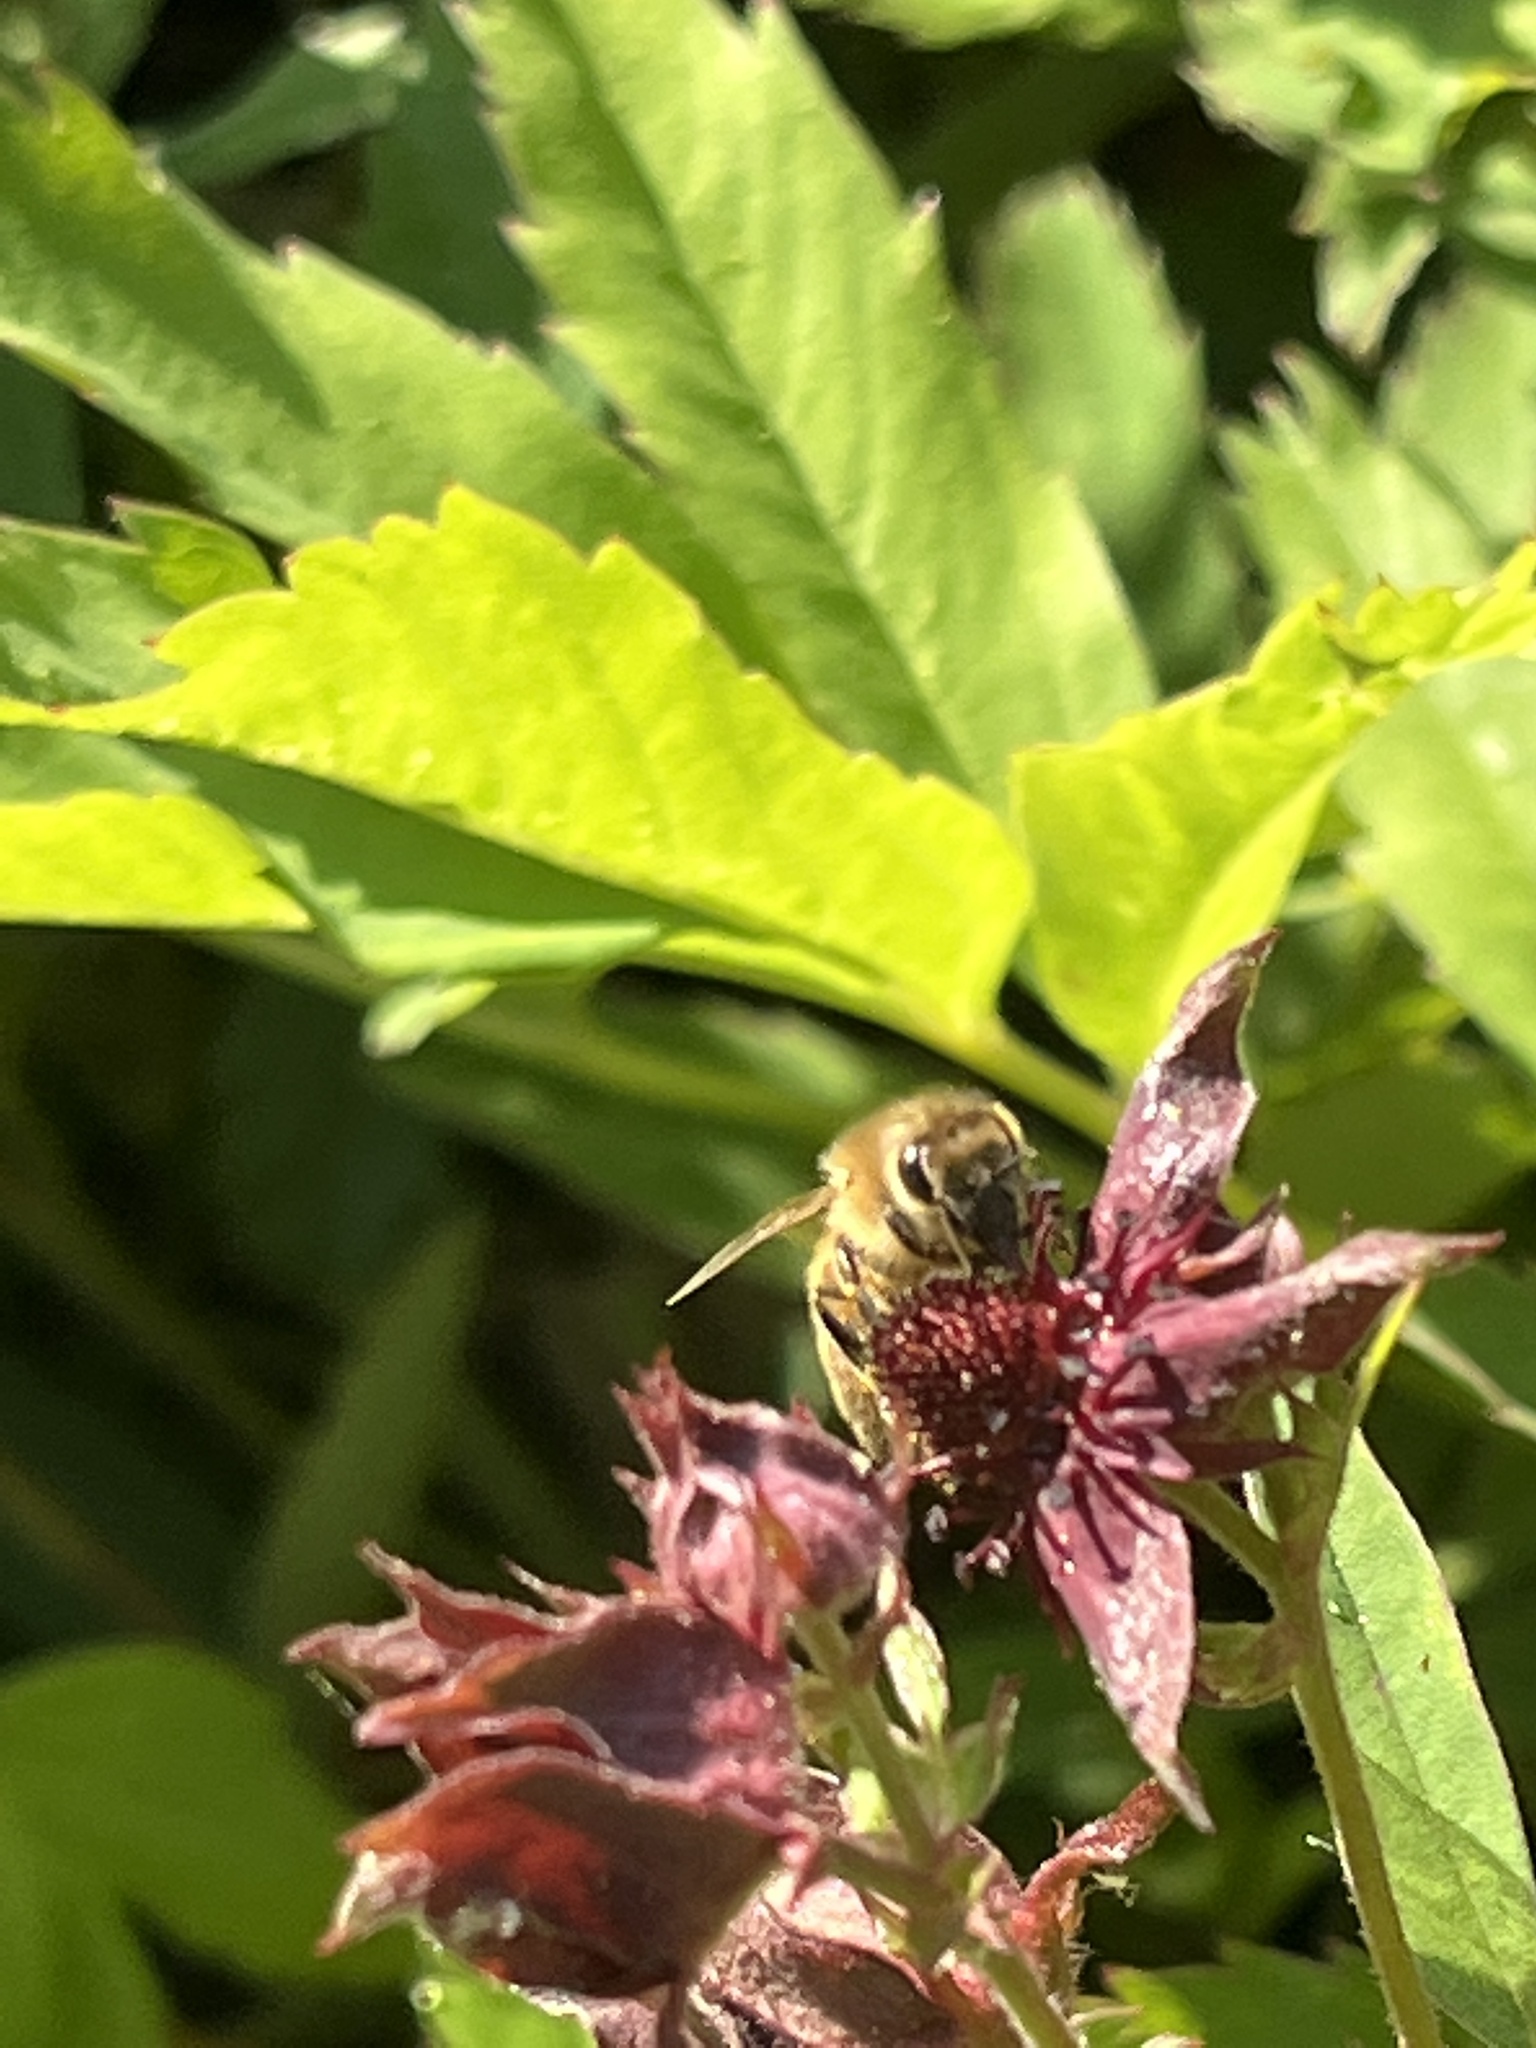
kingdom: Animalia
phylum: Arthropoda
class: Insecta
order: Hymenoptera
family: Apidae
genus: Apis
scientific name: Apis mellifera
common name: Honey bee
